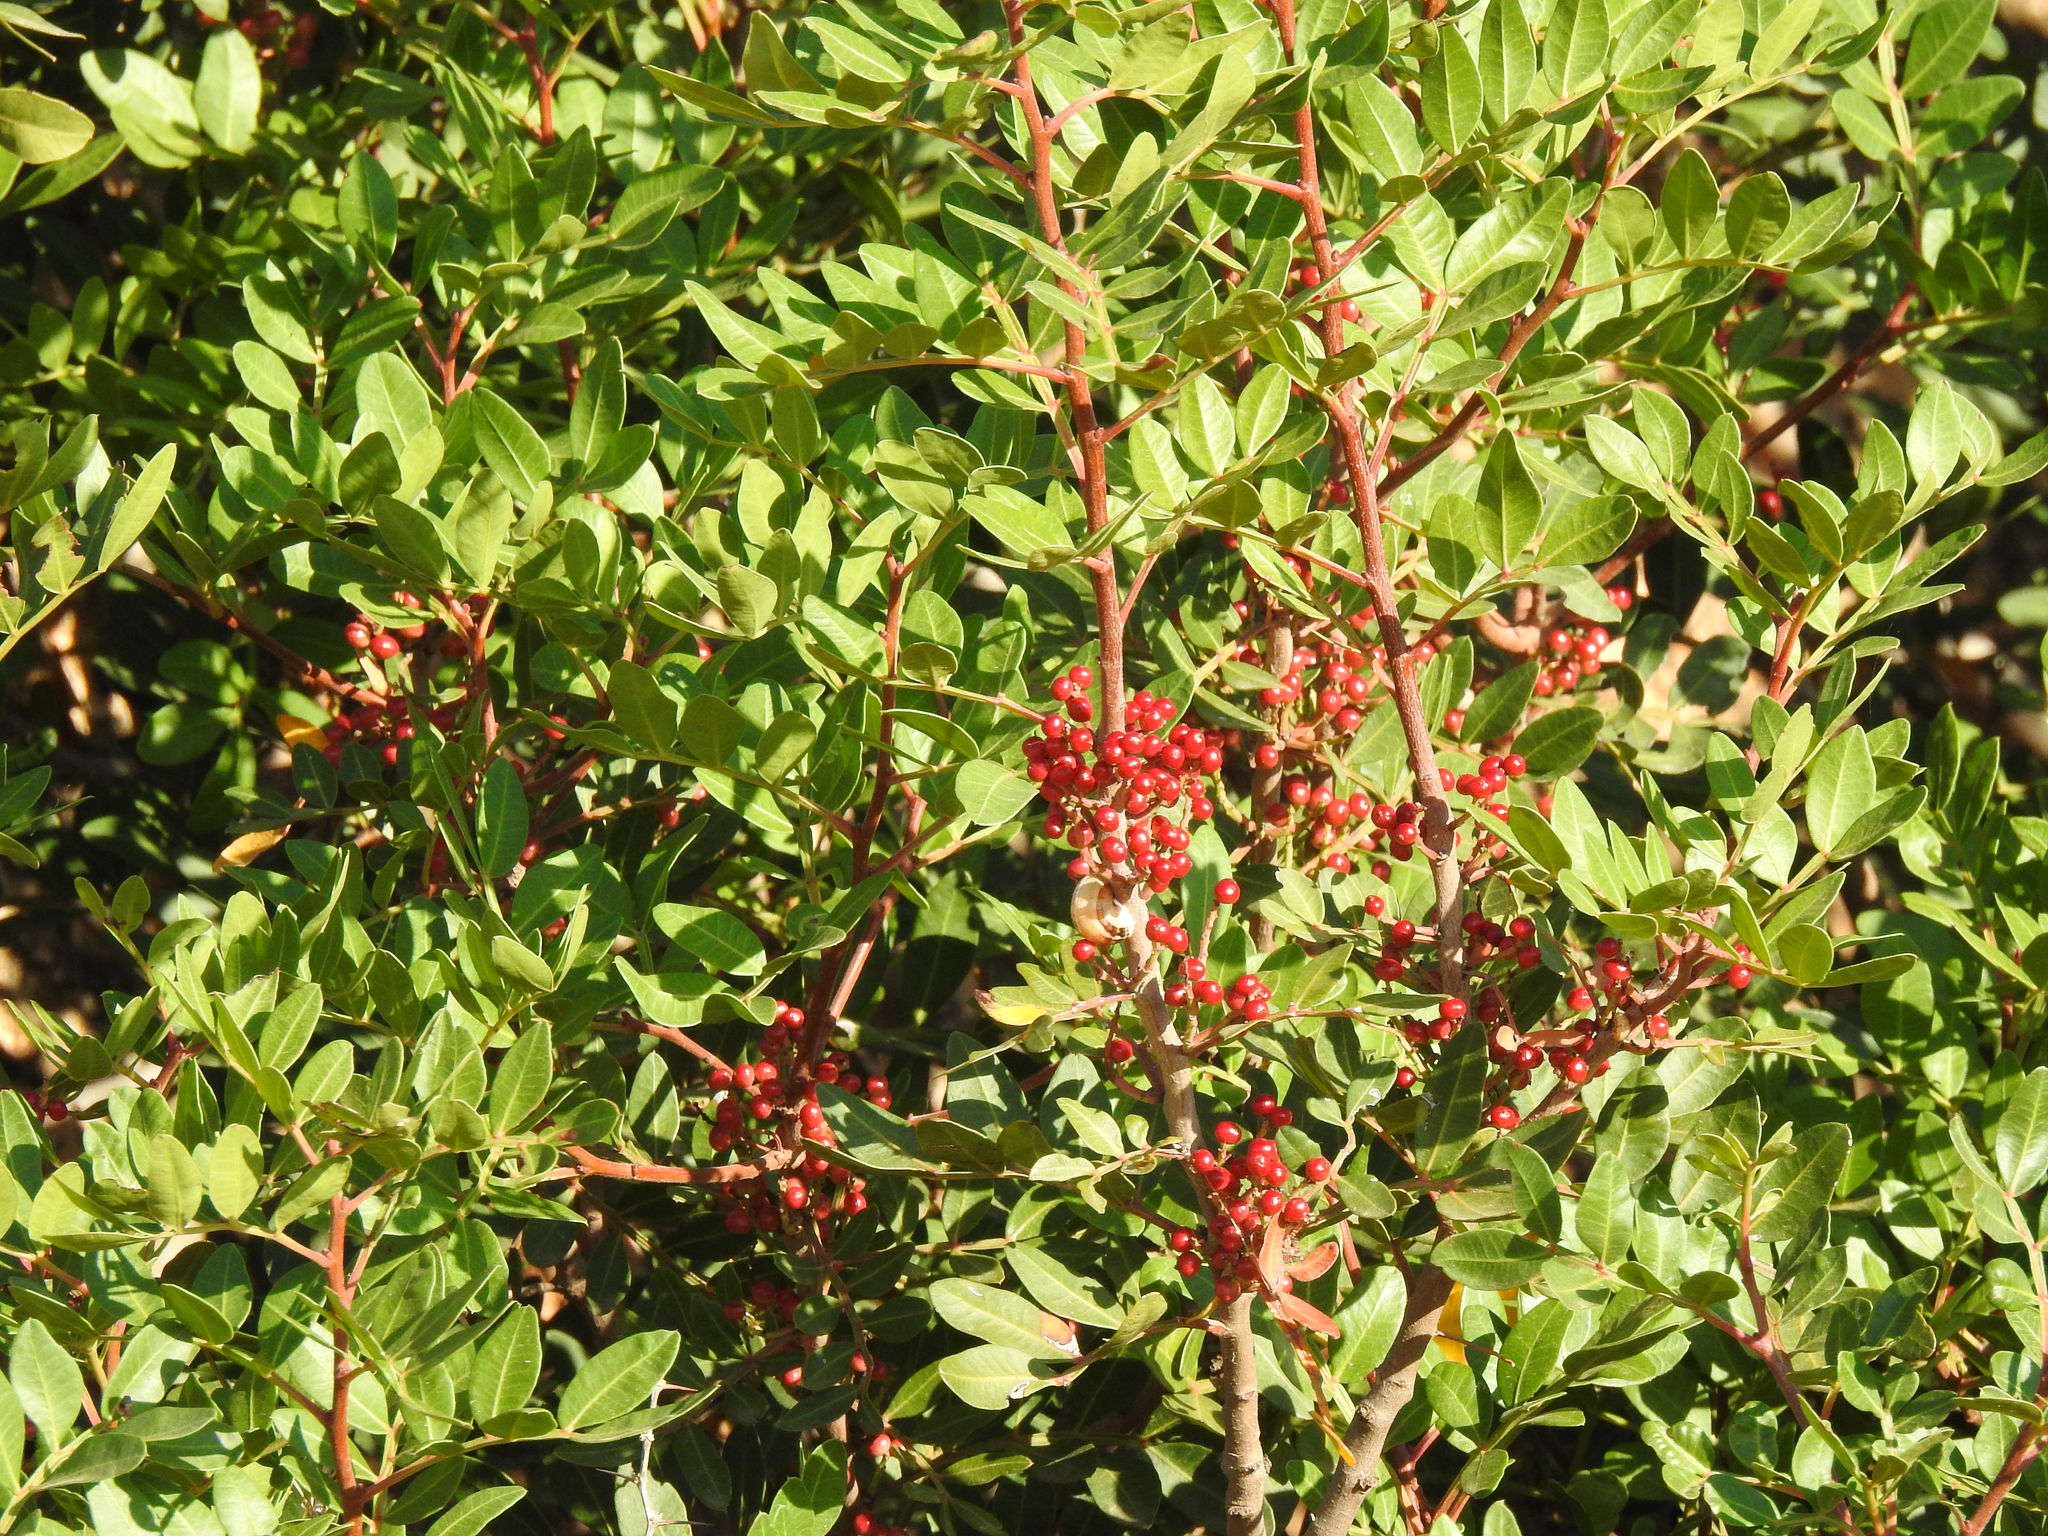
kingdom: Plantae
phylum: Tracheophyta
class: Magnoliopsida
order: Sapindales
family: Anacardiaceae
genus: Pistacia
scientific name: Pistacia lentiscus
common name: Lentisk
